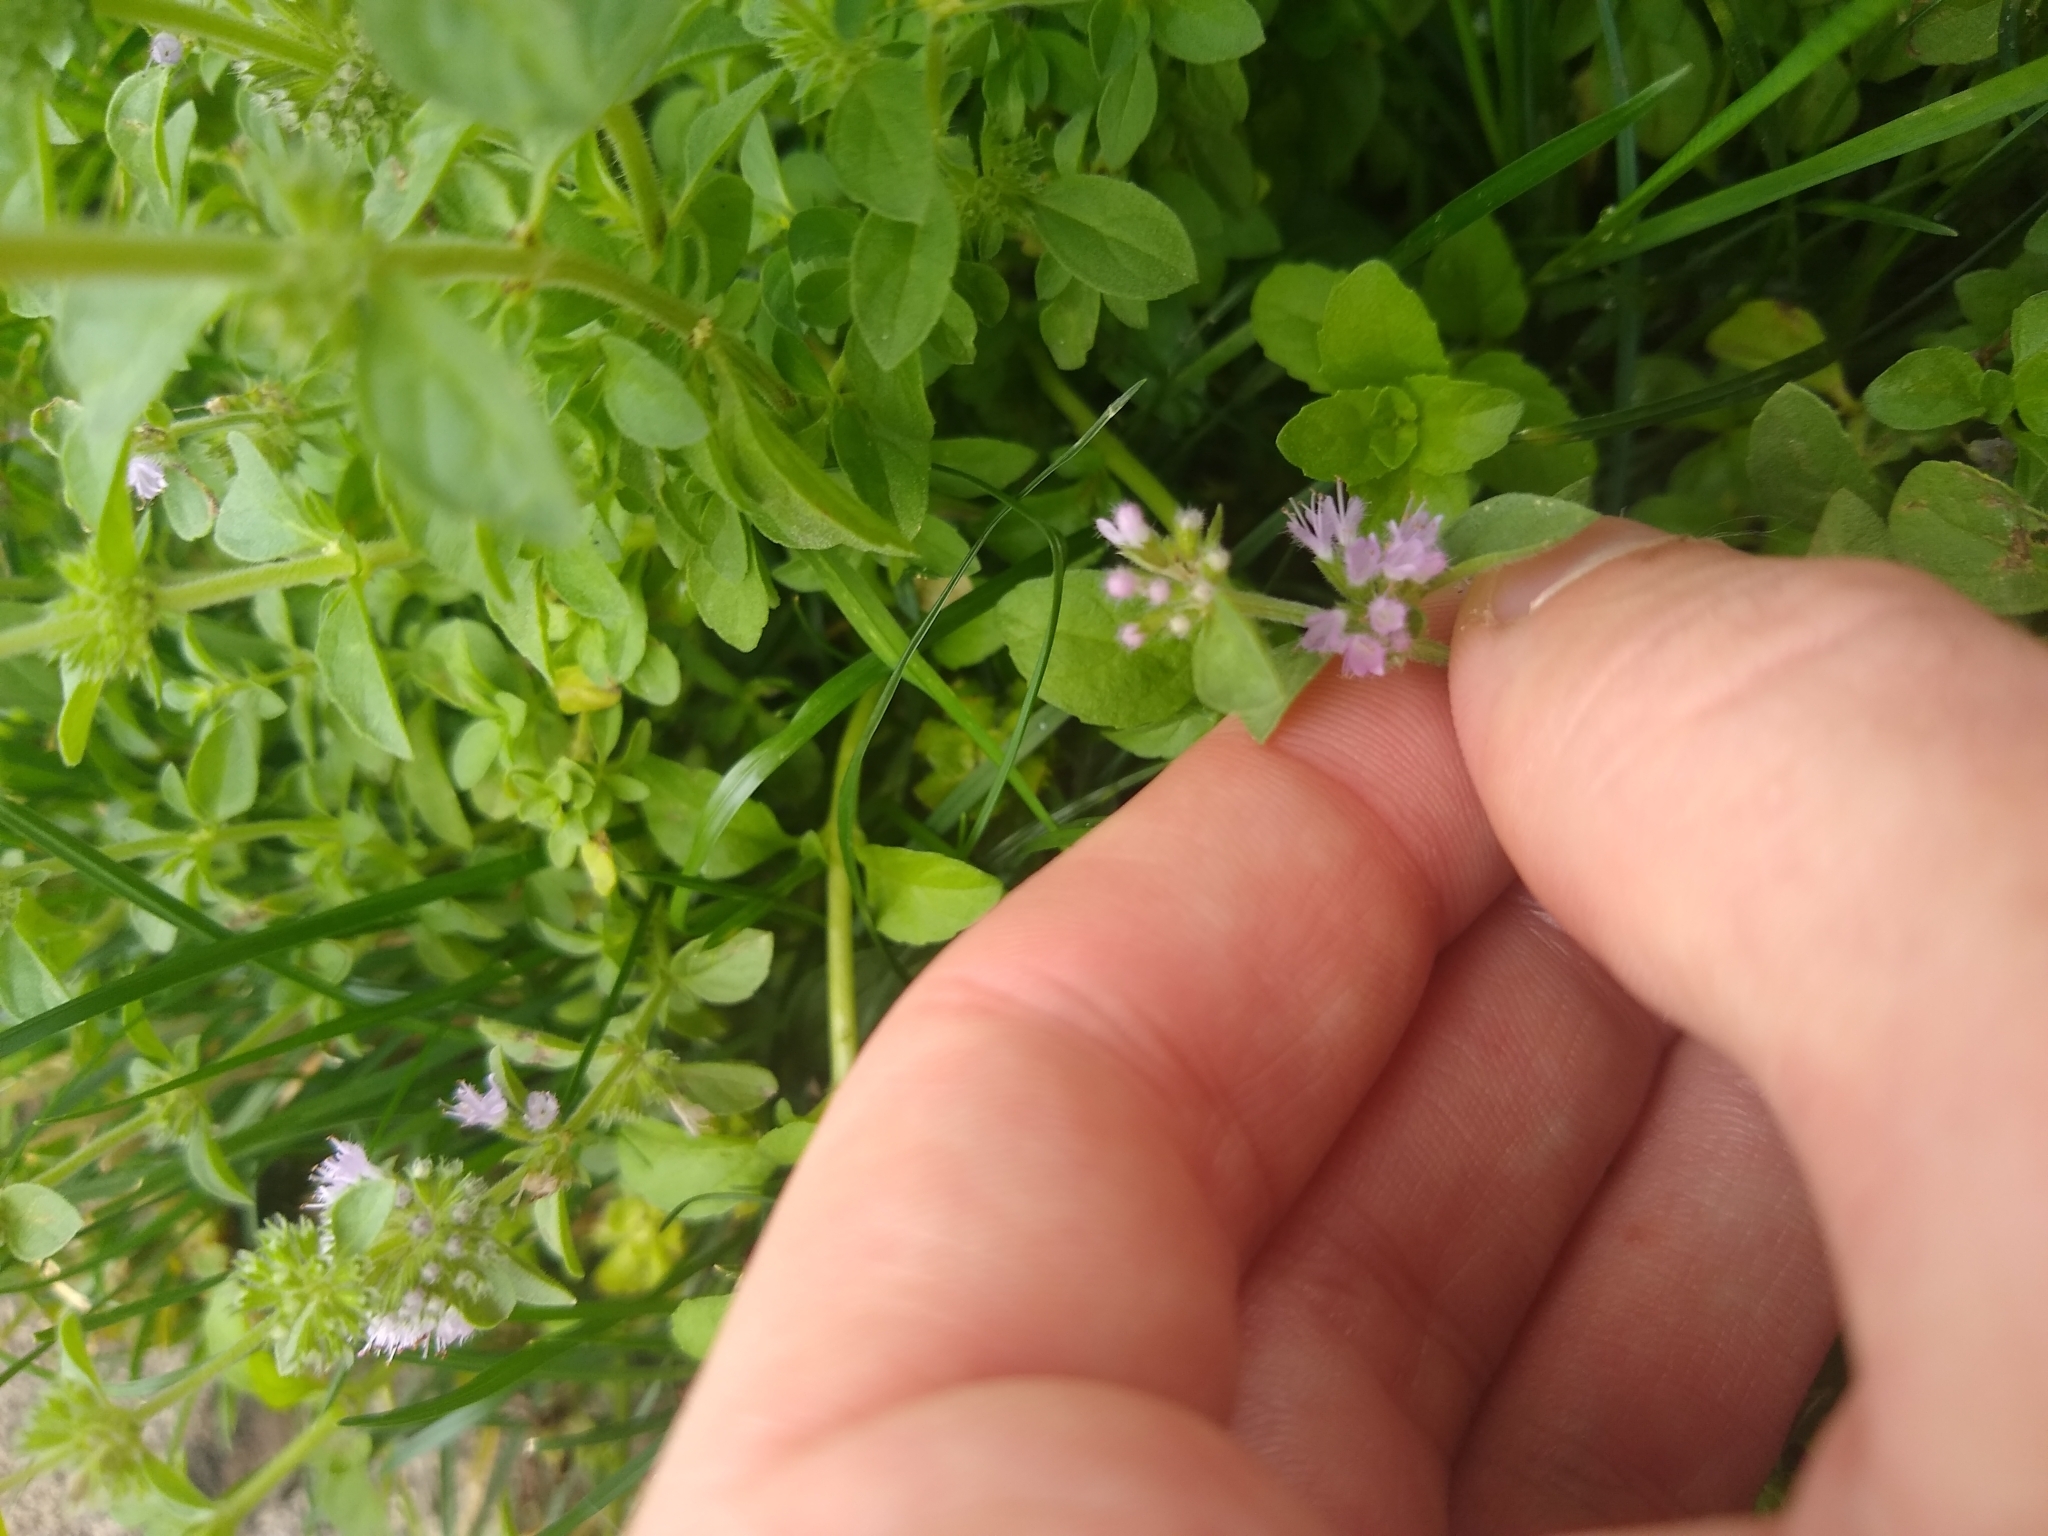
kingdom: Plantae
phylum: Tracheophyta
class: Magnoliopsida
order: Lamiales
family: Lamiaceae
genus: Mentha
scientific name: Mentha pulegium
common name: Pennyroyal
